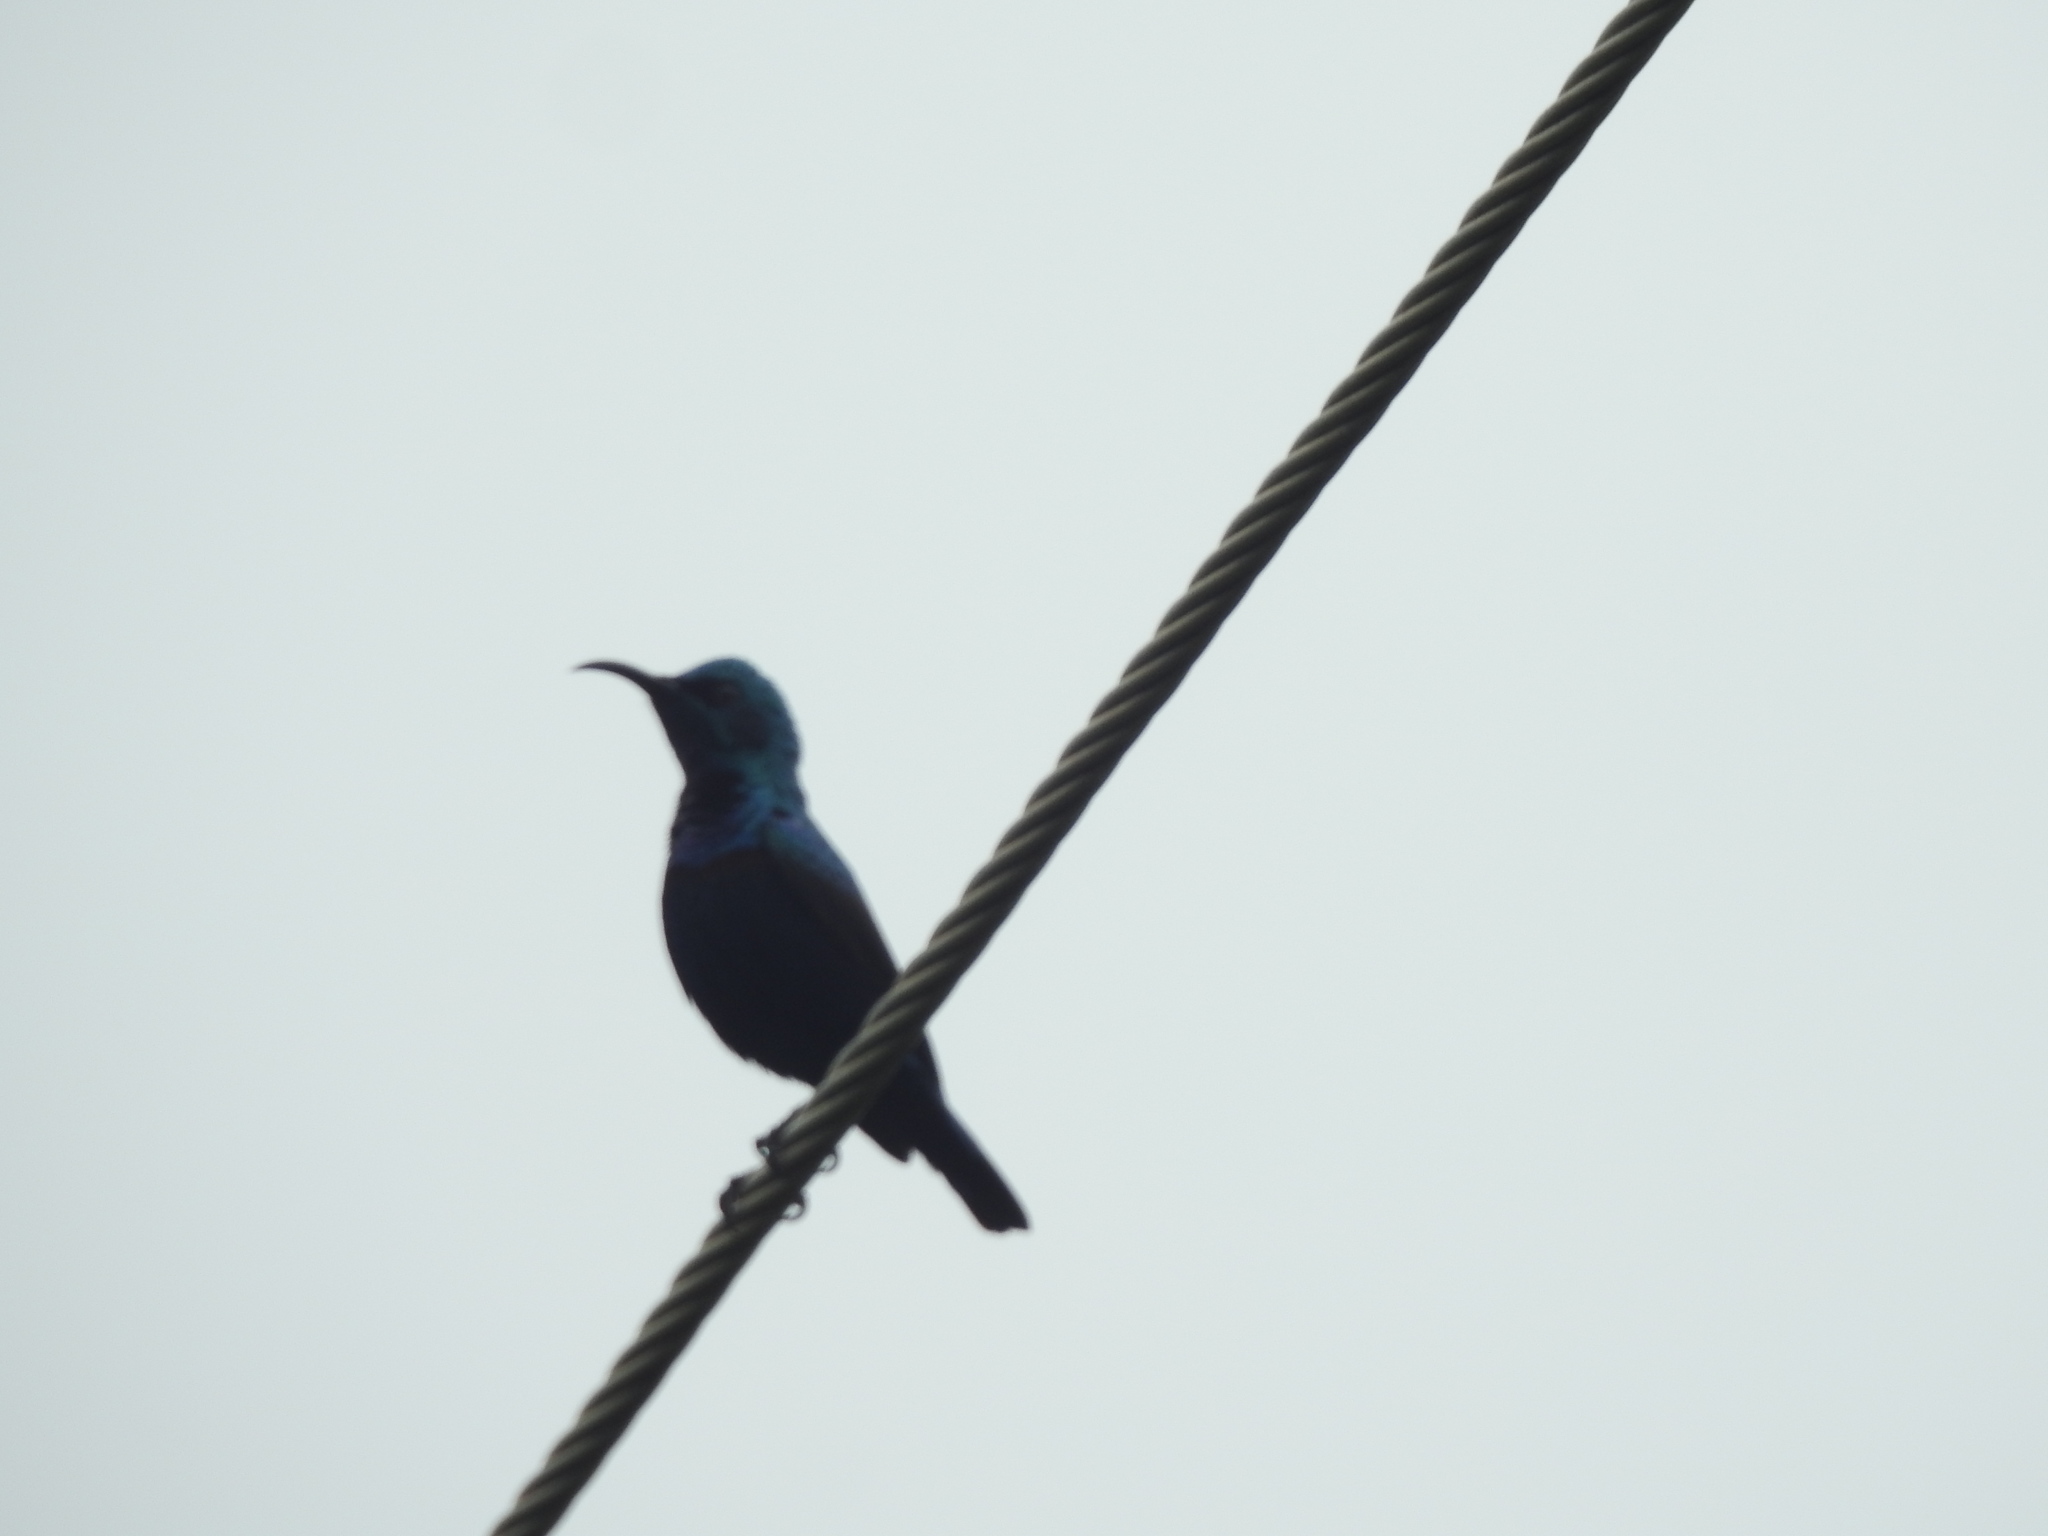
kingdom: Animalia
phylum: Chordata
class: Aves
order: Passeriformes
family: Nectariniidae
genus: Cinnyris
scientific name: Cinnyris asiaticus
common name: Purple sunbird
